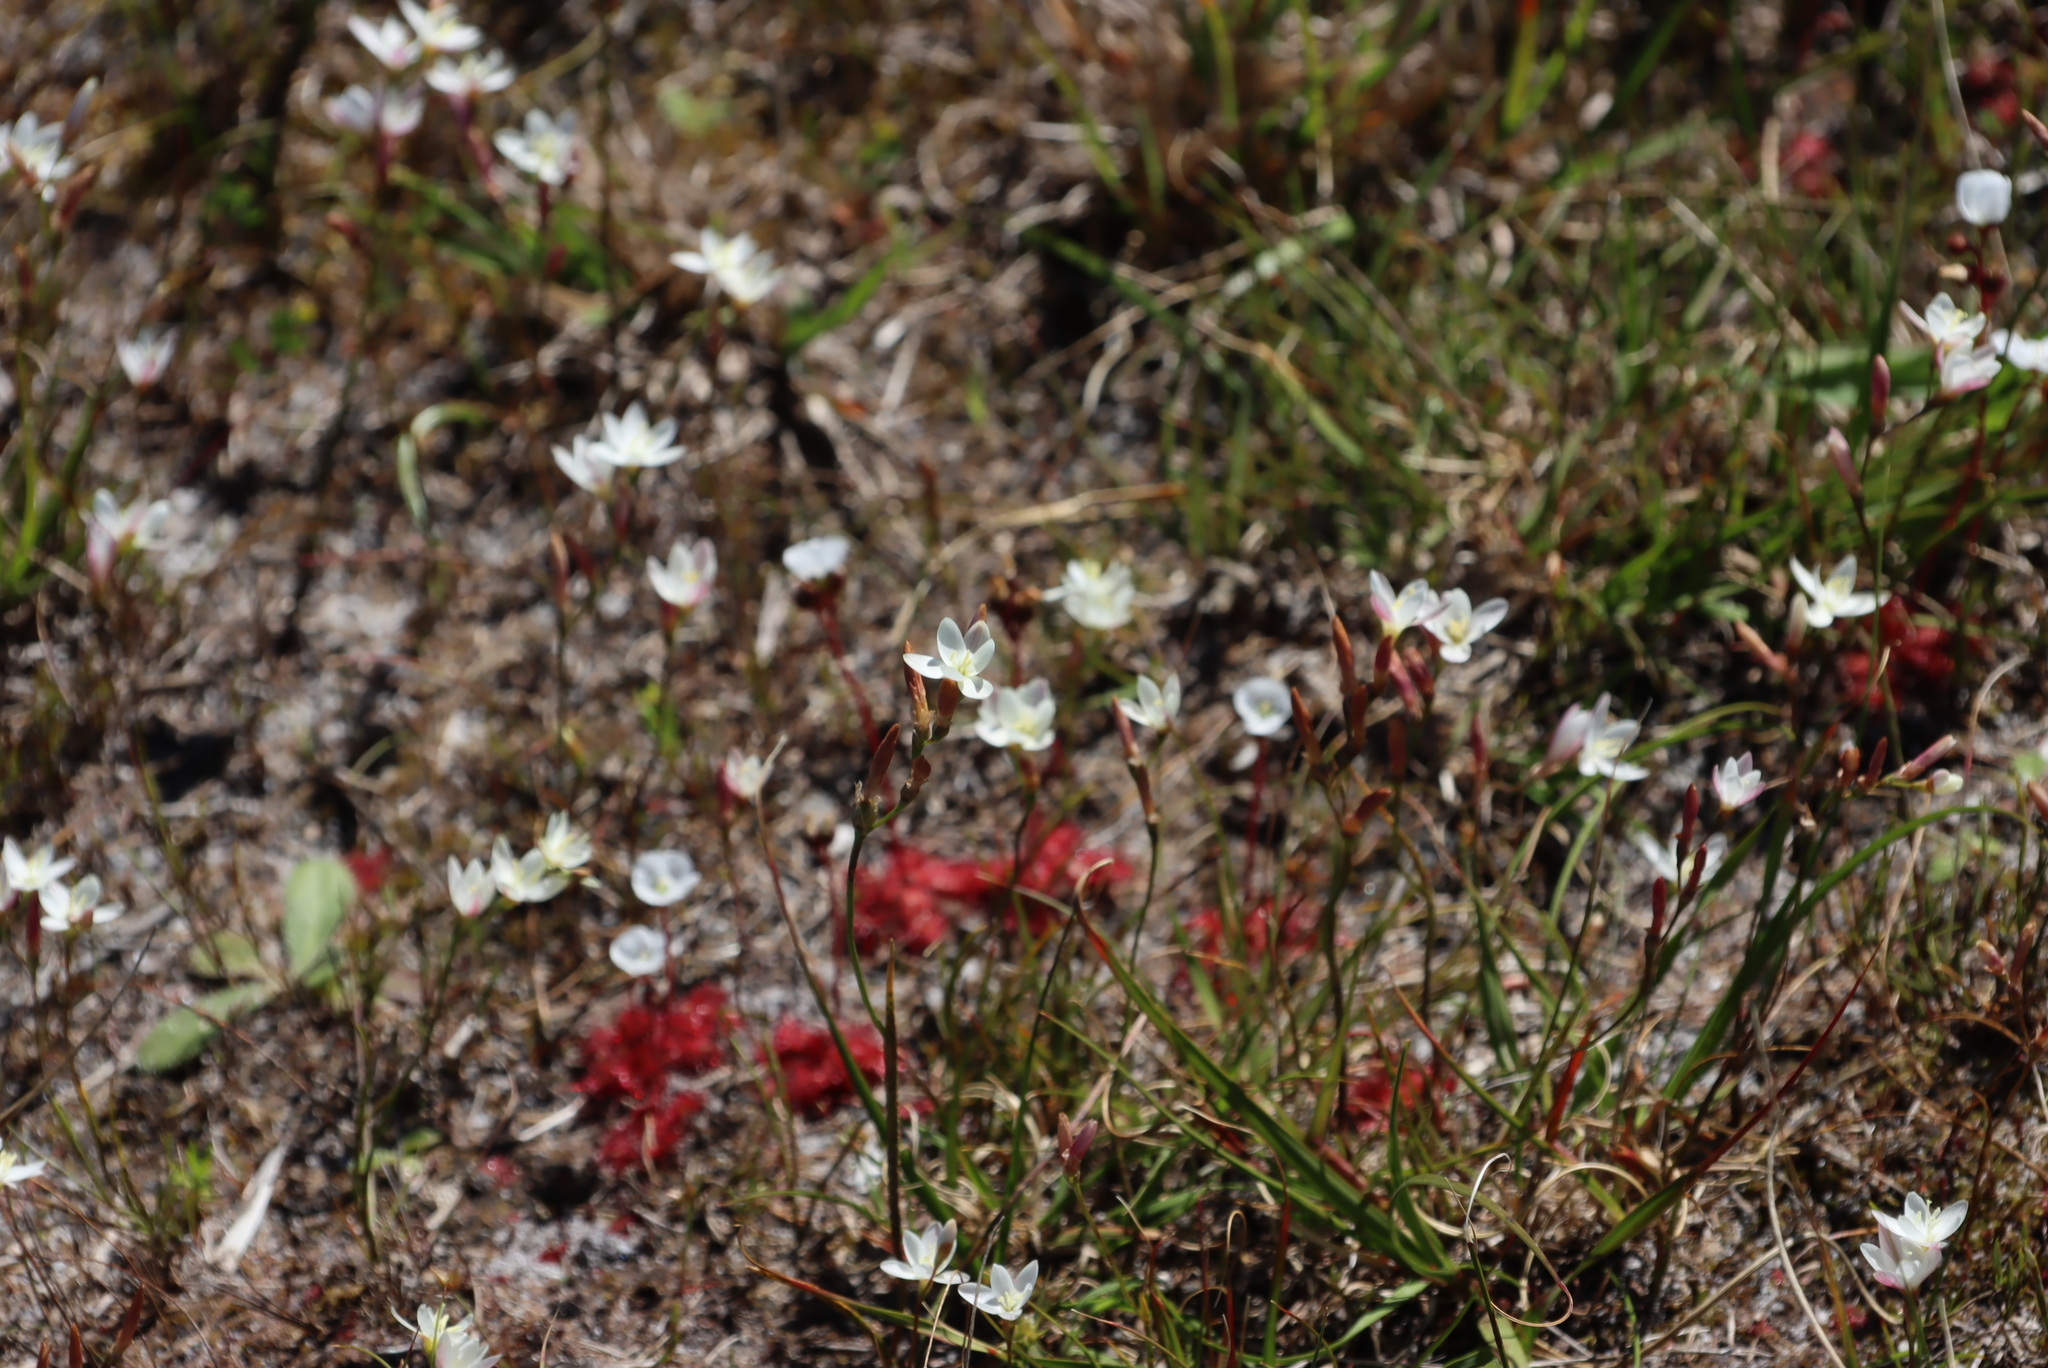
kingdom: Plantae
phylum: Tracheophyta
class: Magnoliopsida
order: Caryophyllales
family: Droseraceae
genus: Drosera
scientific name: Drosera trinervia
